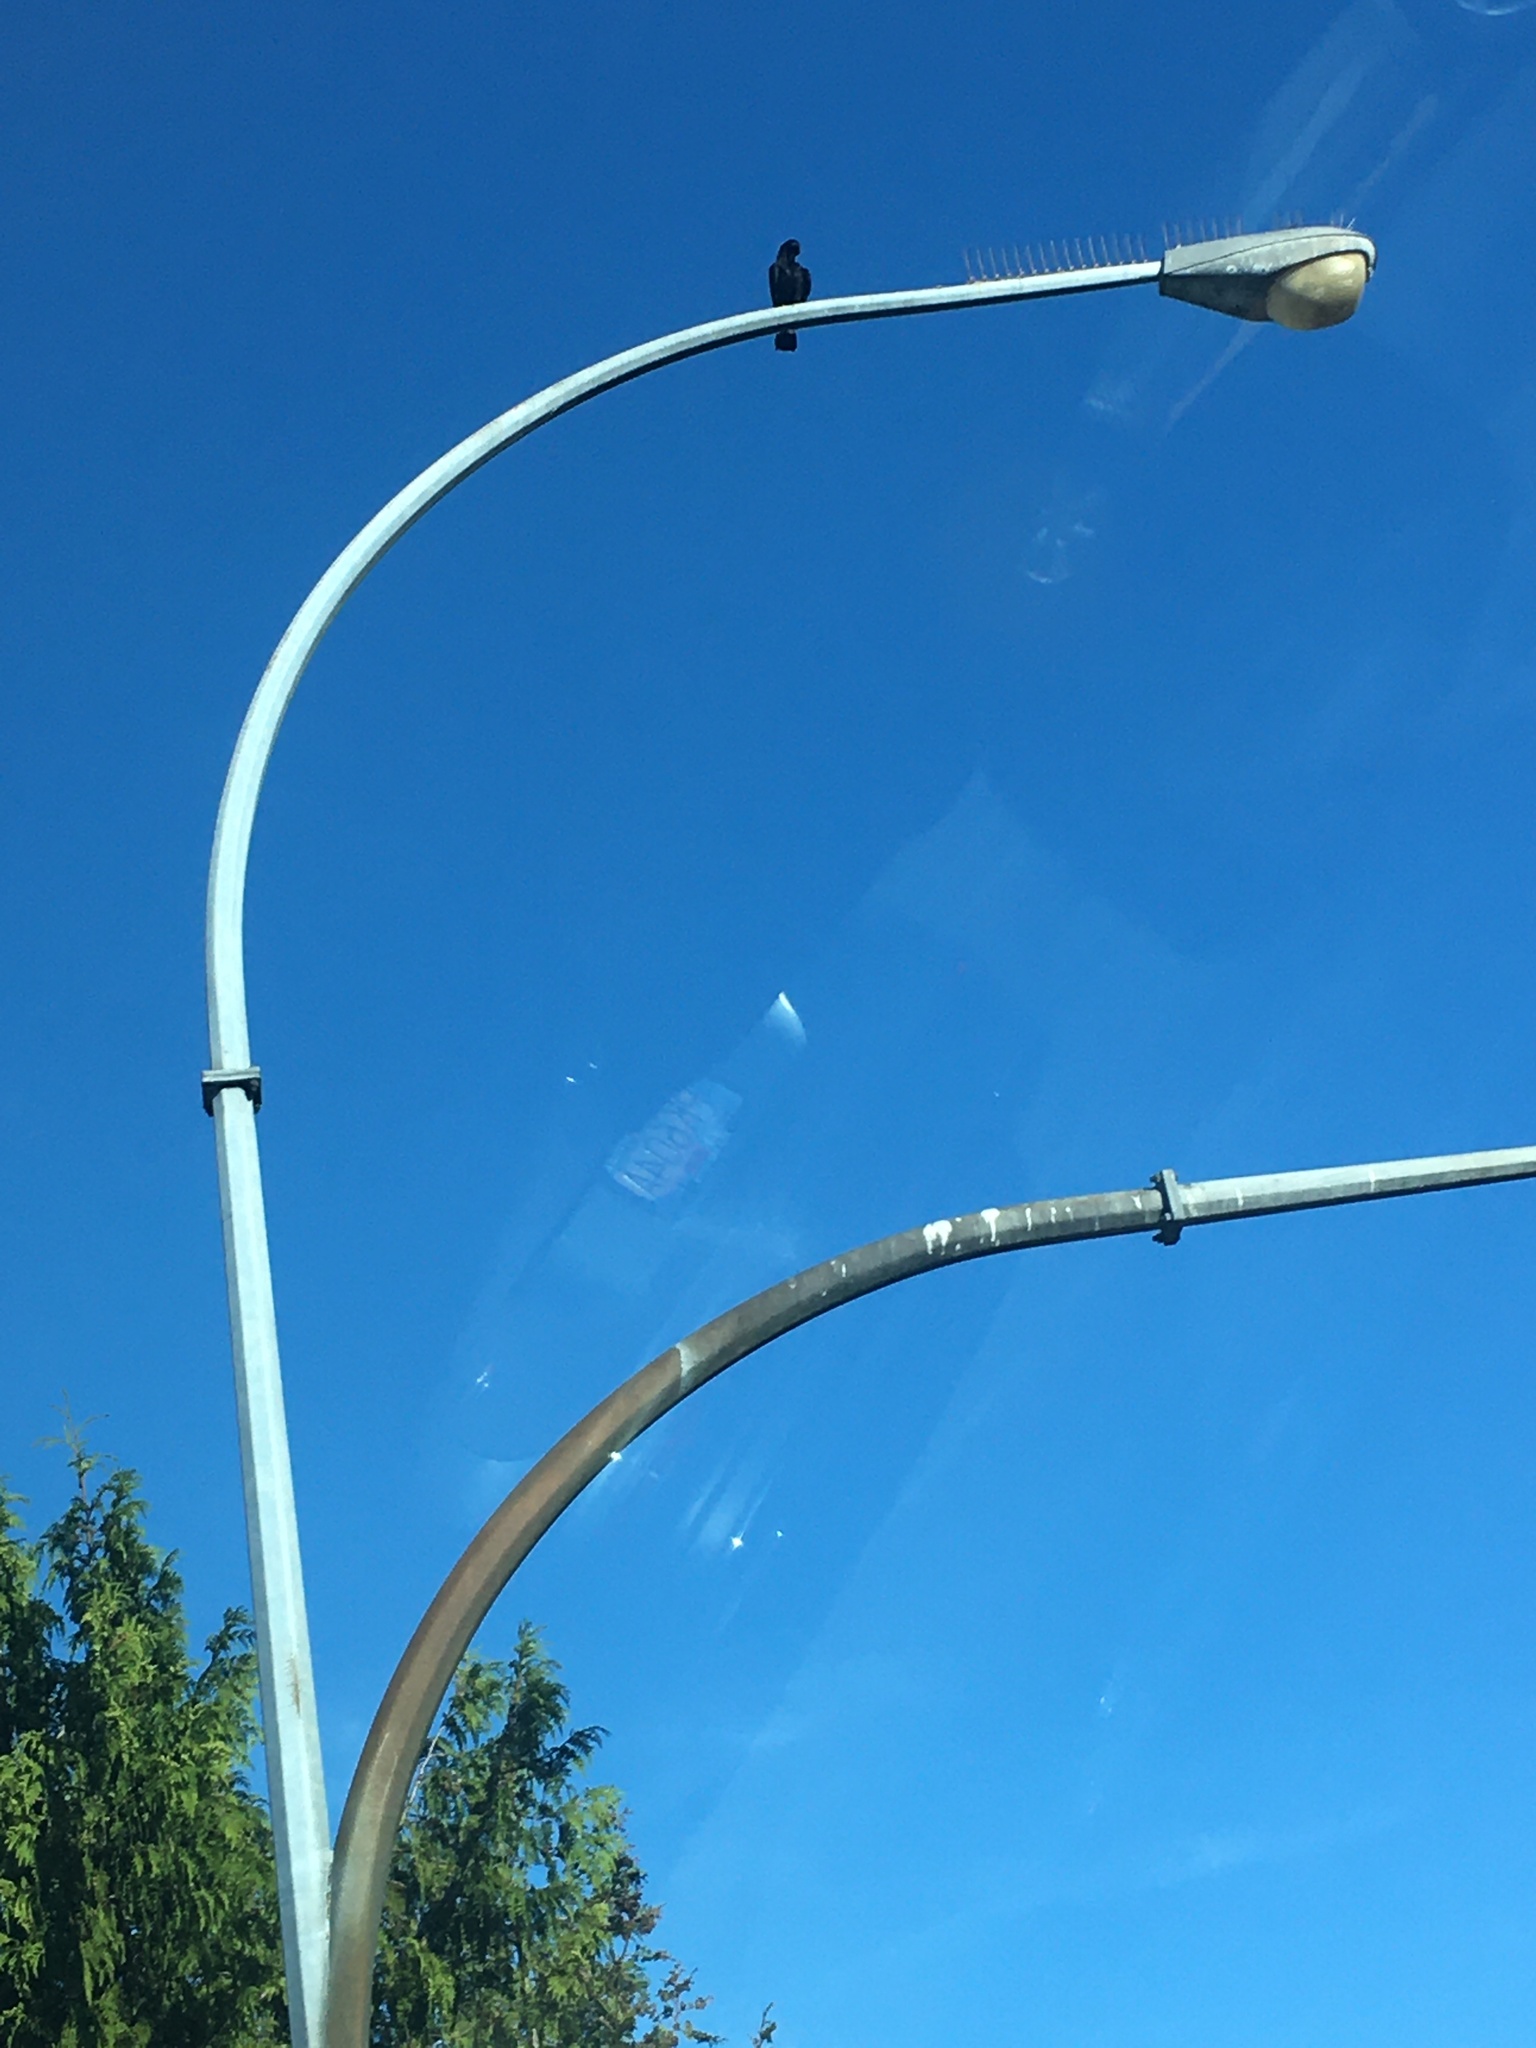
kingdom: Animalia
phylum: Chordata
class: Aves
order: Passeriformes
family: Corvidae
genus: Corvus
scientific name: Corvus brachyrhynchos
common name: American crow
